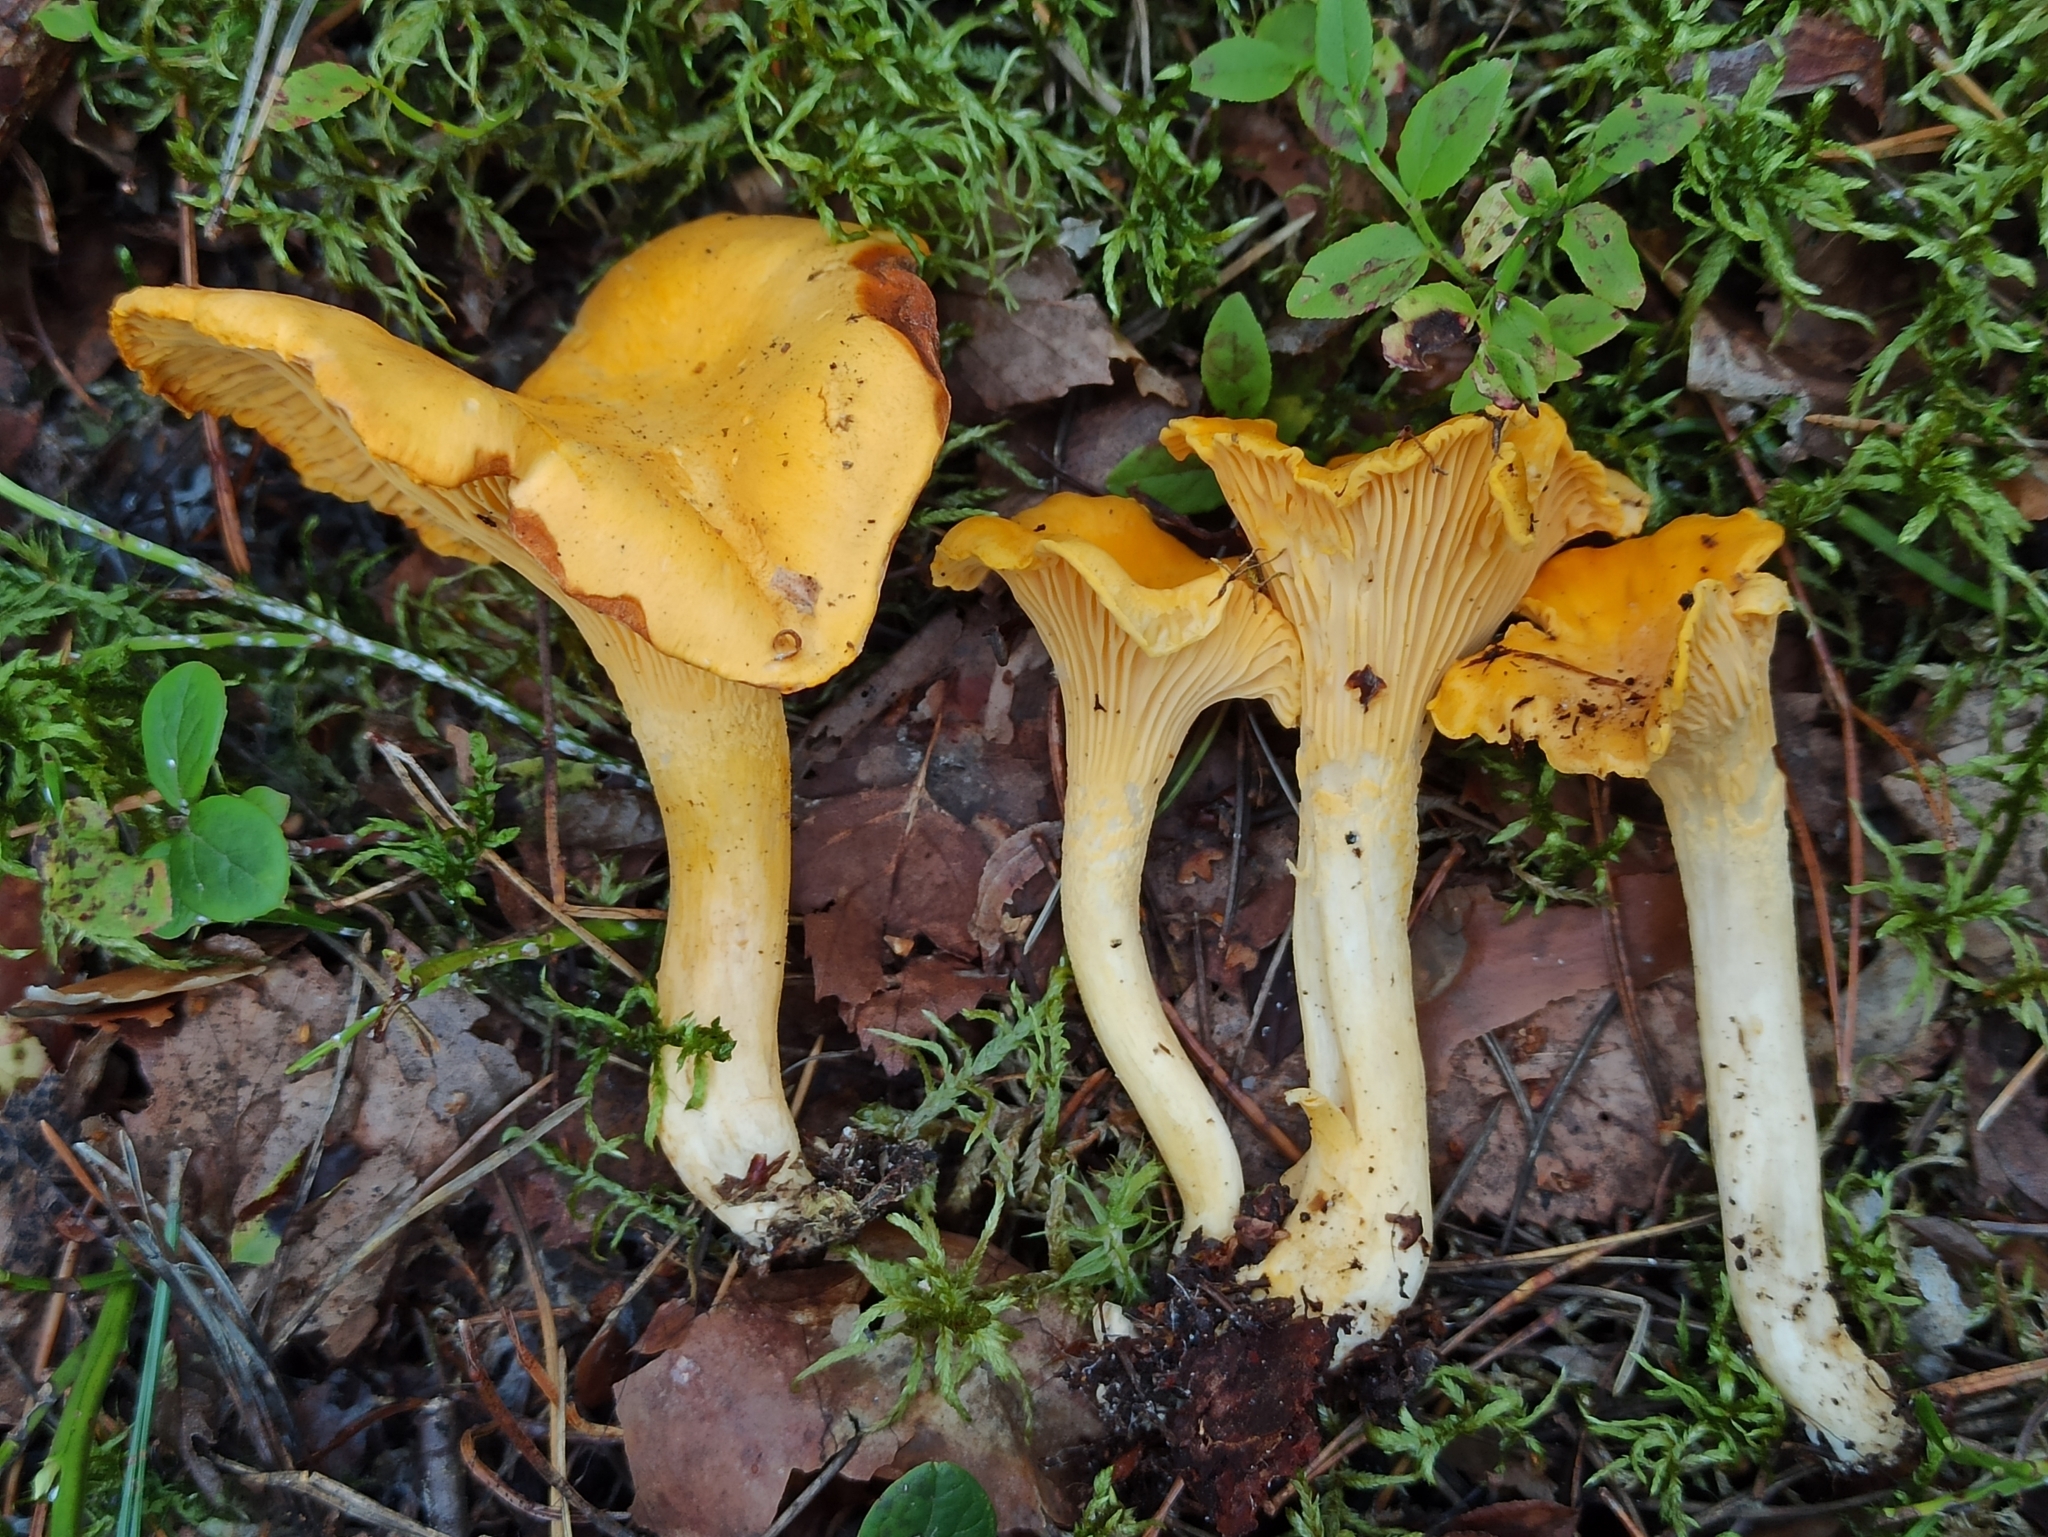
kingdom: Fungi
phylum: Basidiomycota
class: Agaricomycetes
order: Cantharellales
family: Hydnaceae
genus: Cantharellus
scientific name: Cantharellus cibarius
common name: Chanterelle
